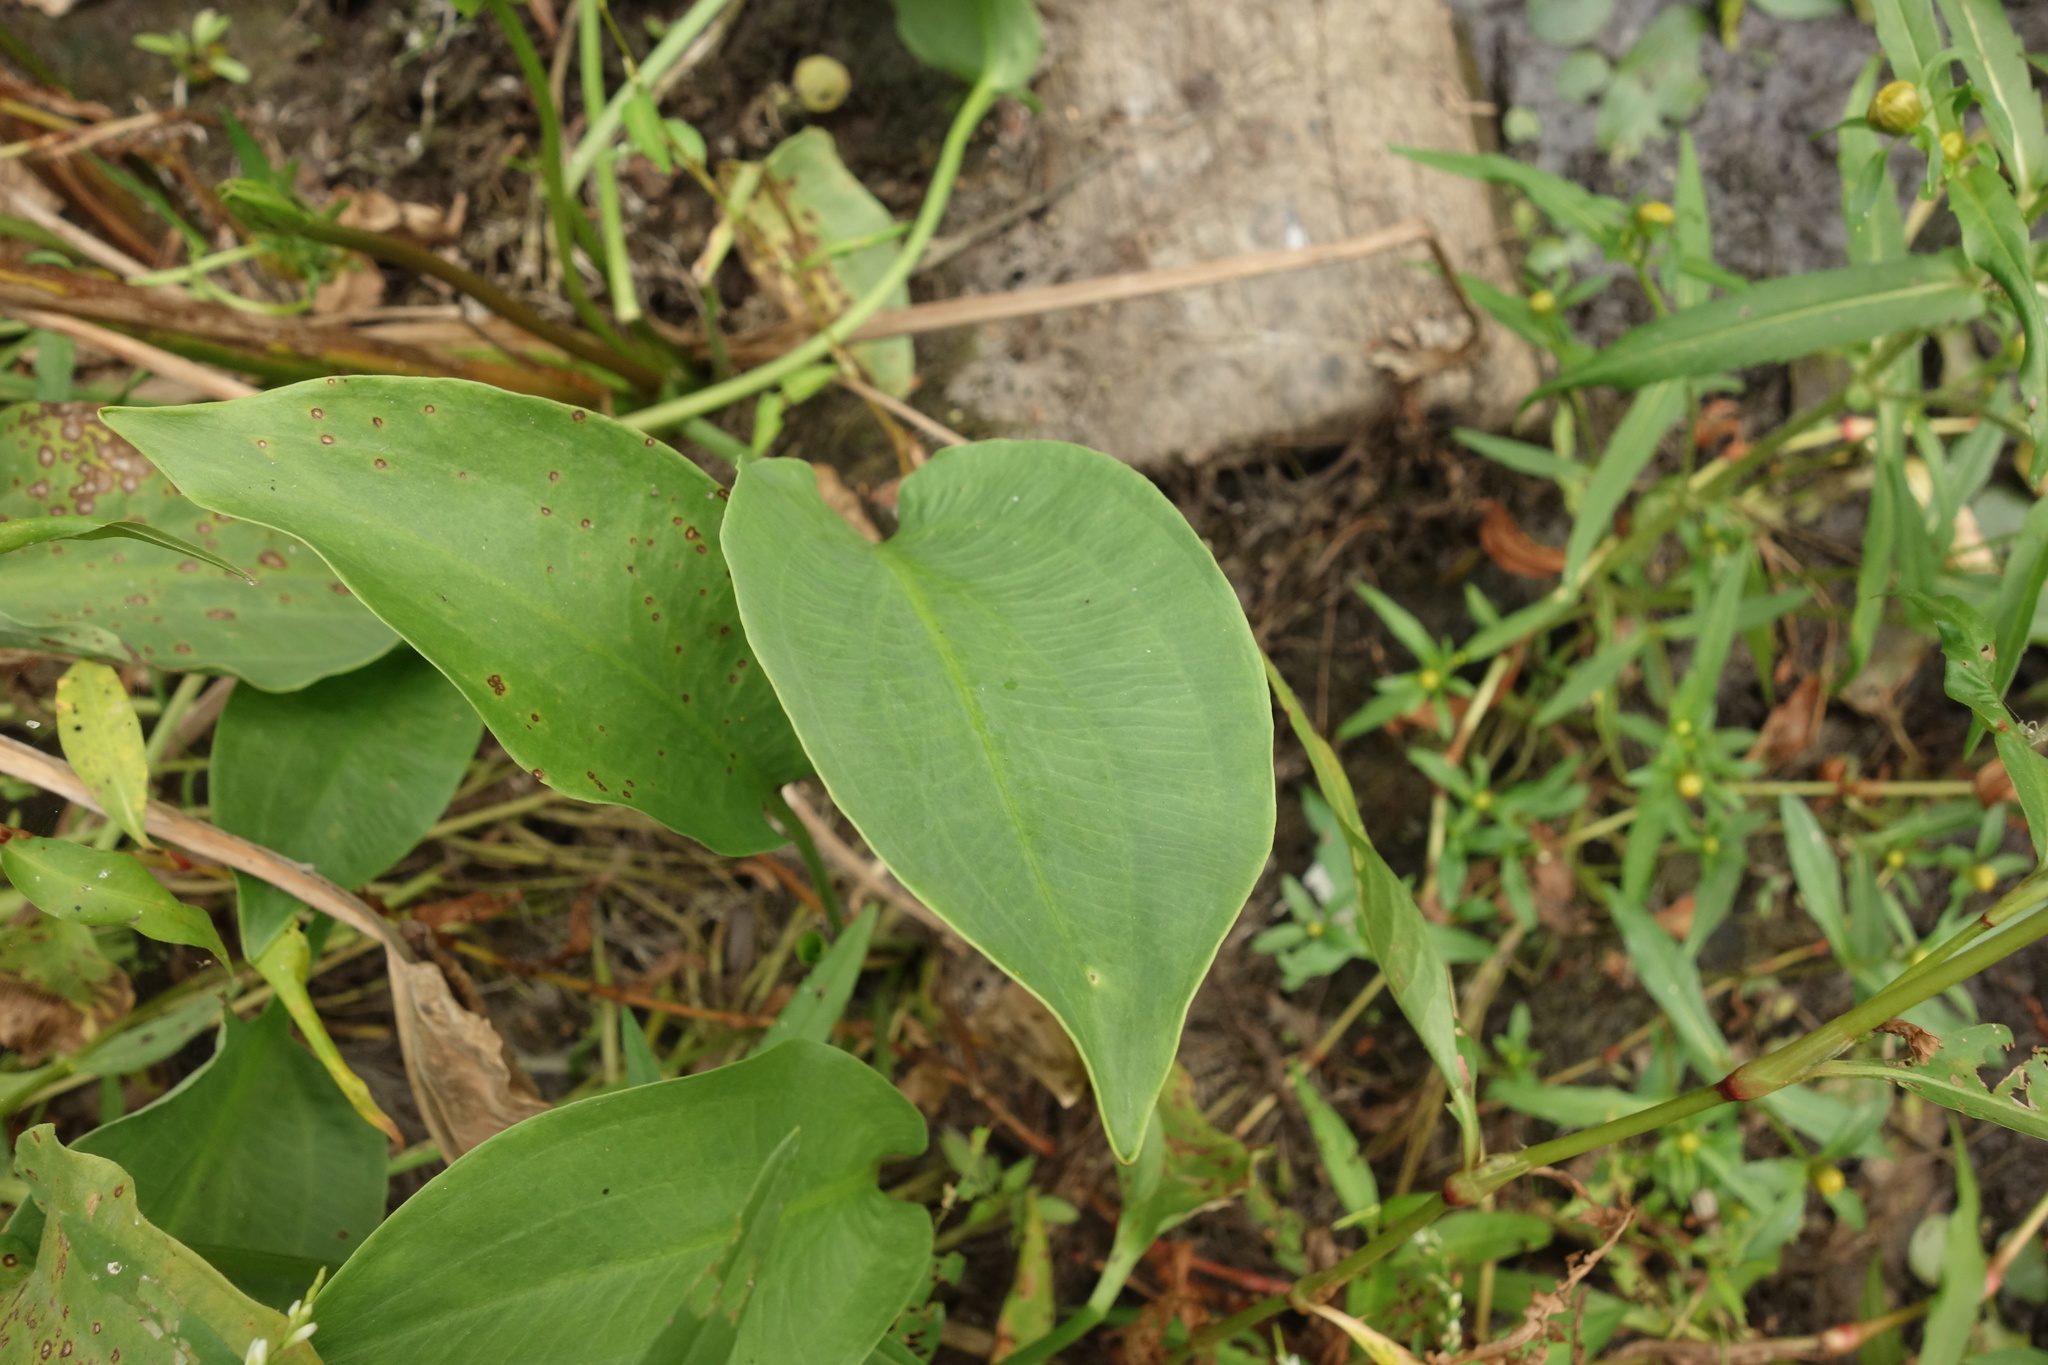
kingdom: Plantae
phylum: Tracheophyta
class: Liliopsida
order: Alismatales
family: Alismataceae
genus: Alisma
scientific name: Alisma plantago-aquatica
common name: Water-plantain
